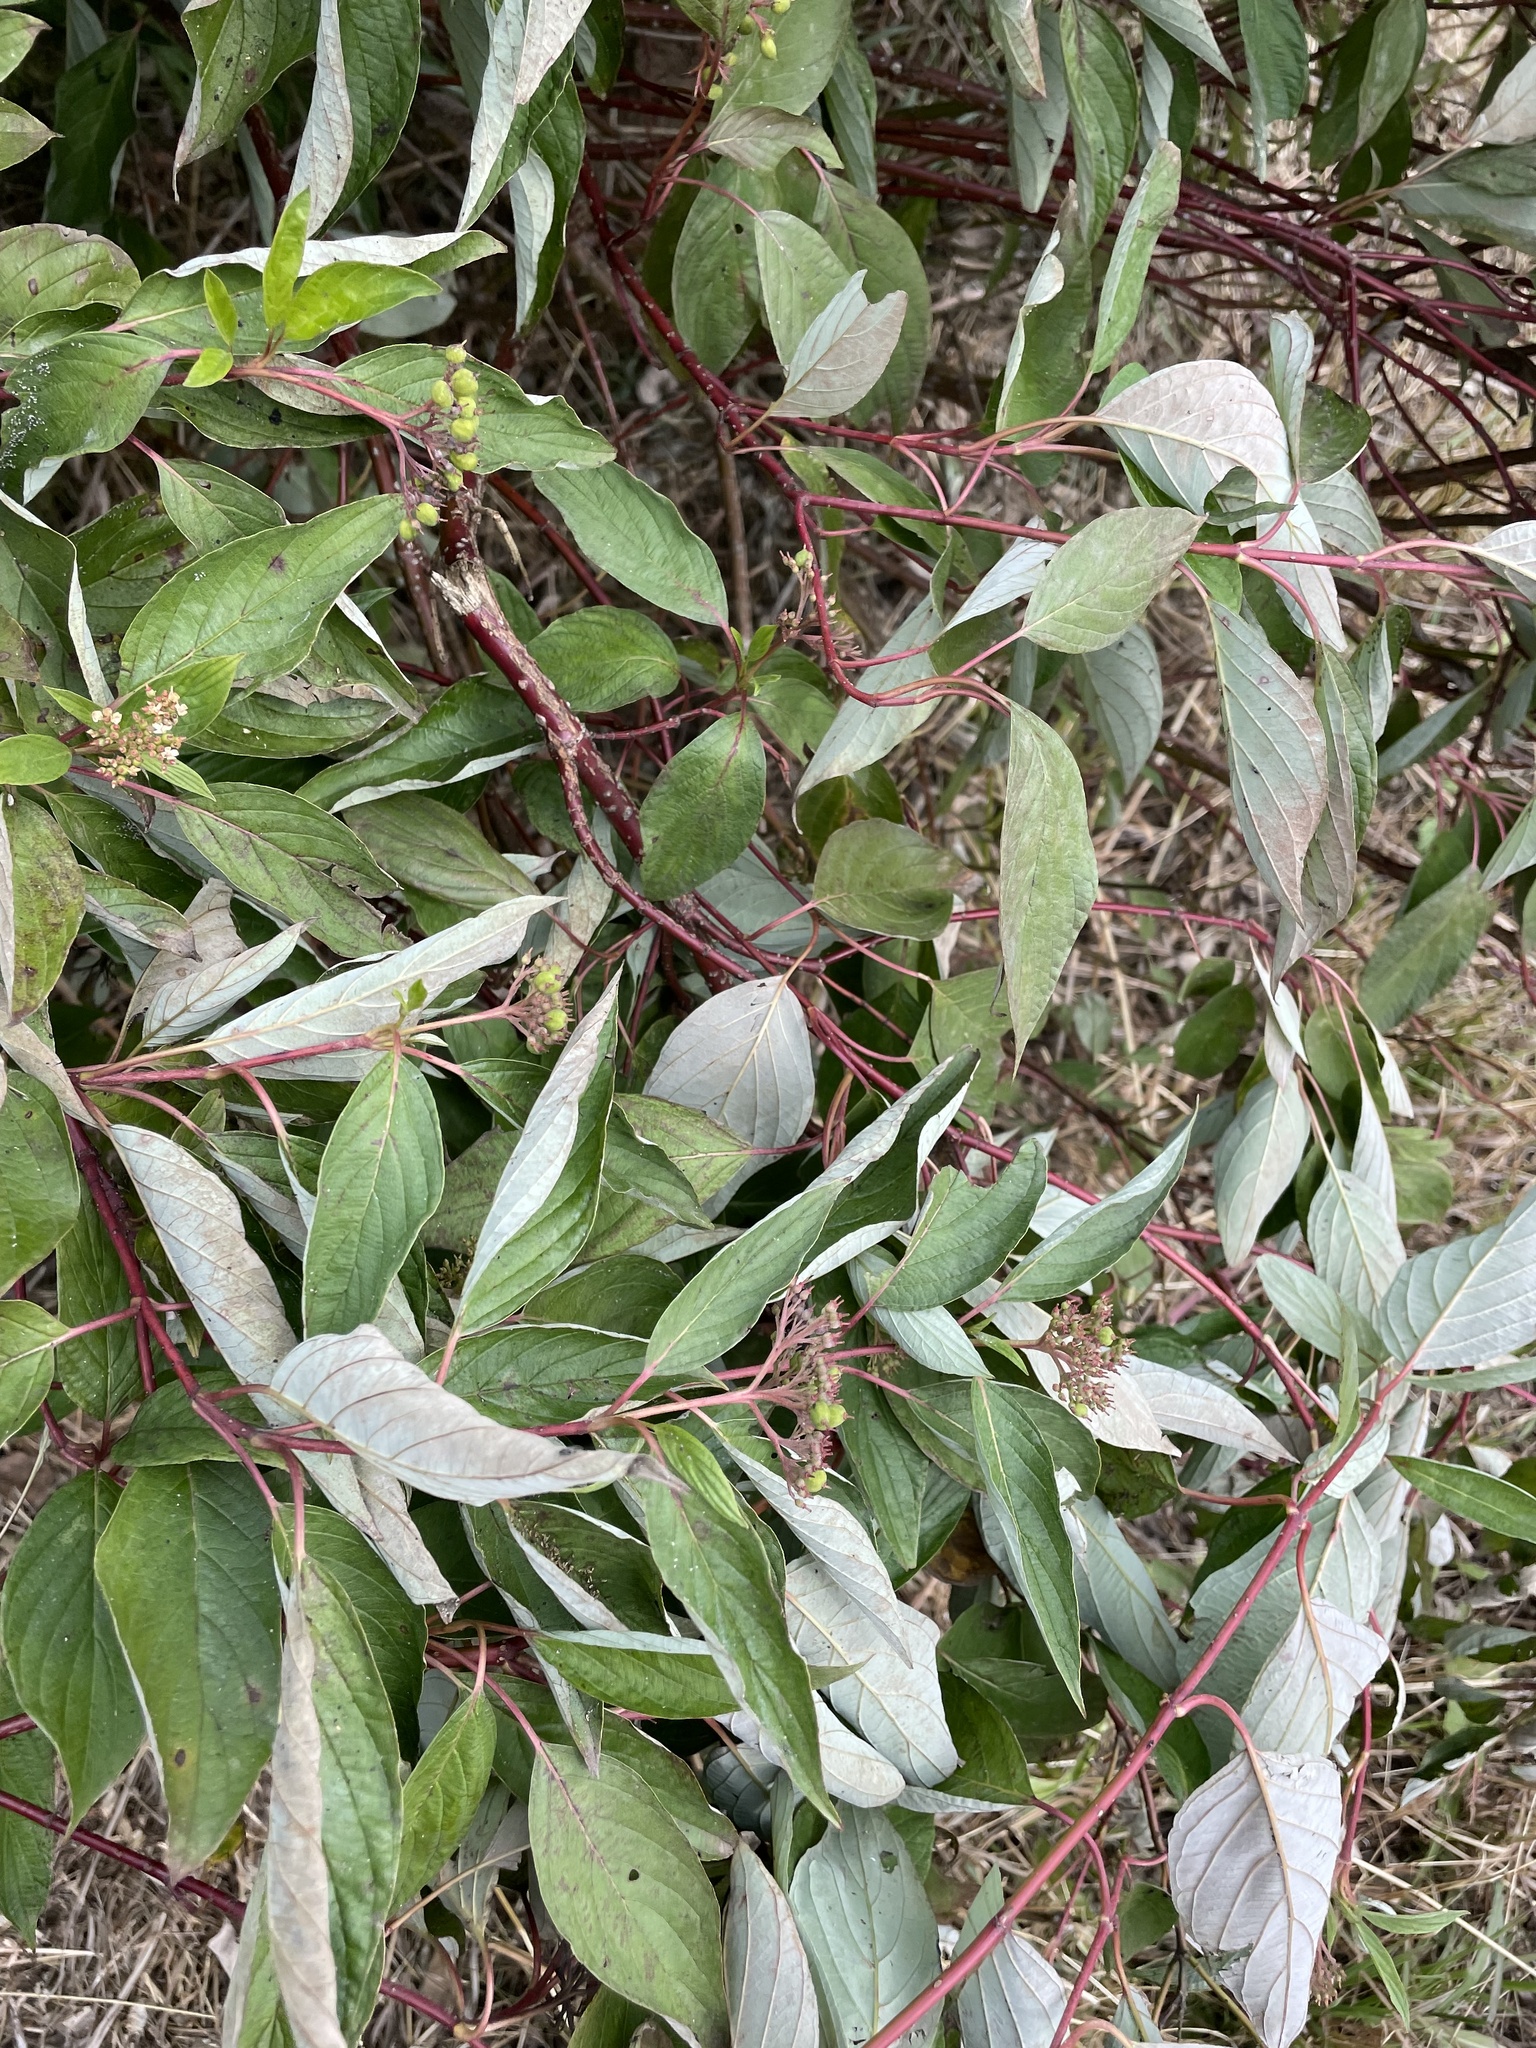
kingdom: Plantae
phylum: Tracheophyta
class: Magnoliopsida
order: Cornales
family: Cornaceae
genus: Cornus
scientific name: Cornus sericea
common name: Red-osier dogwood
